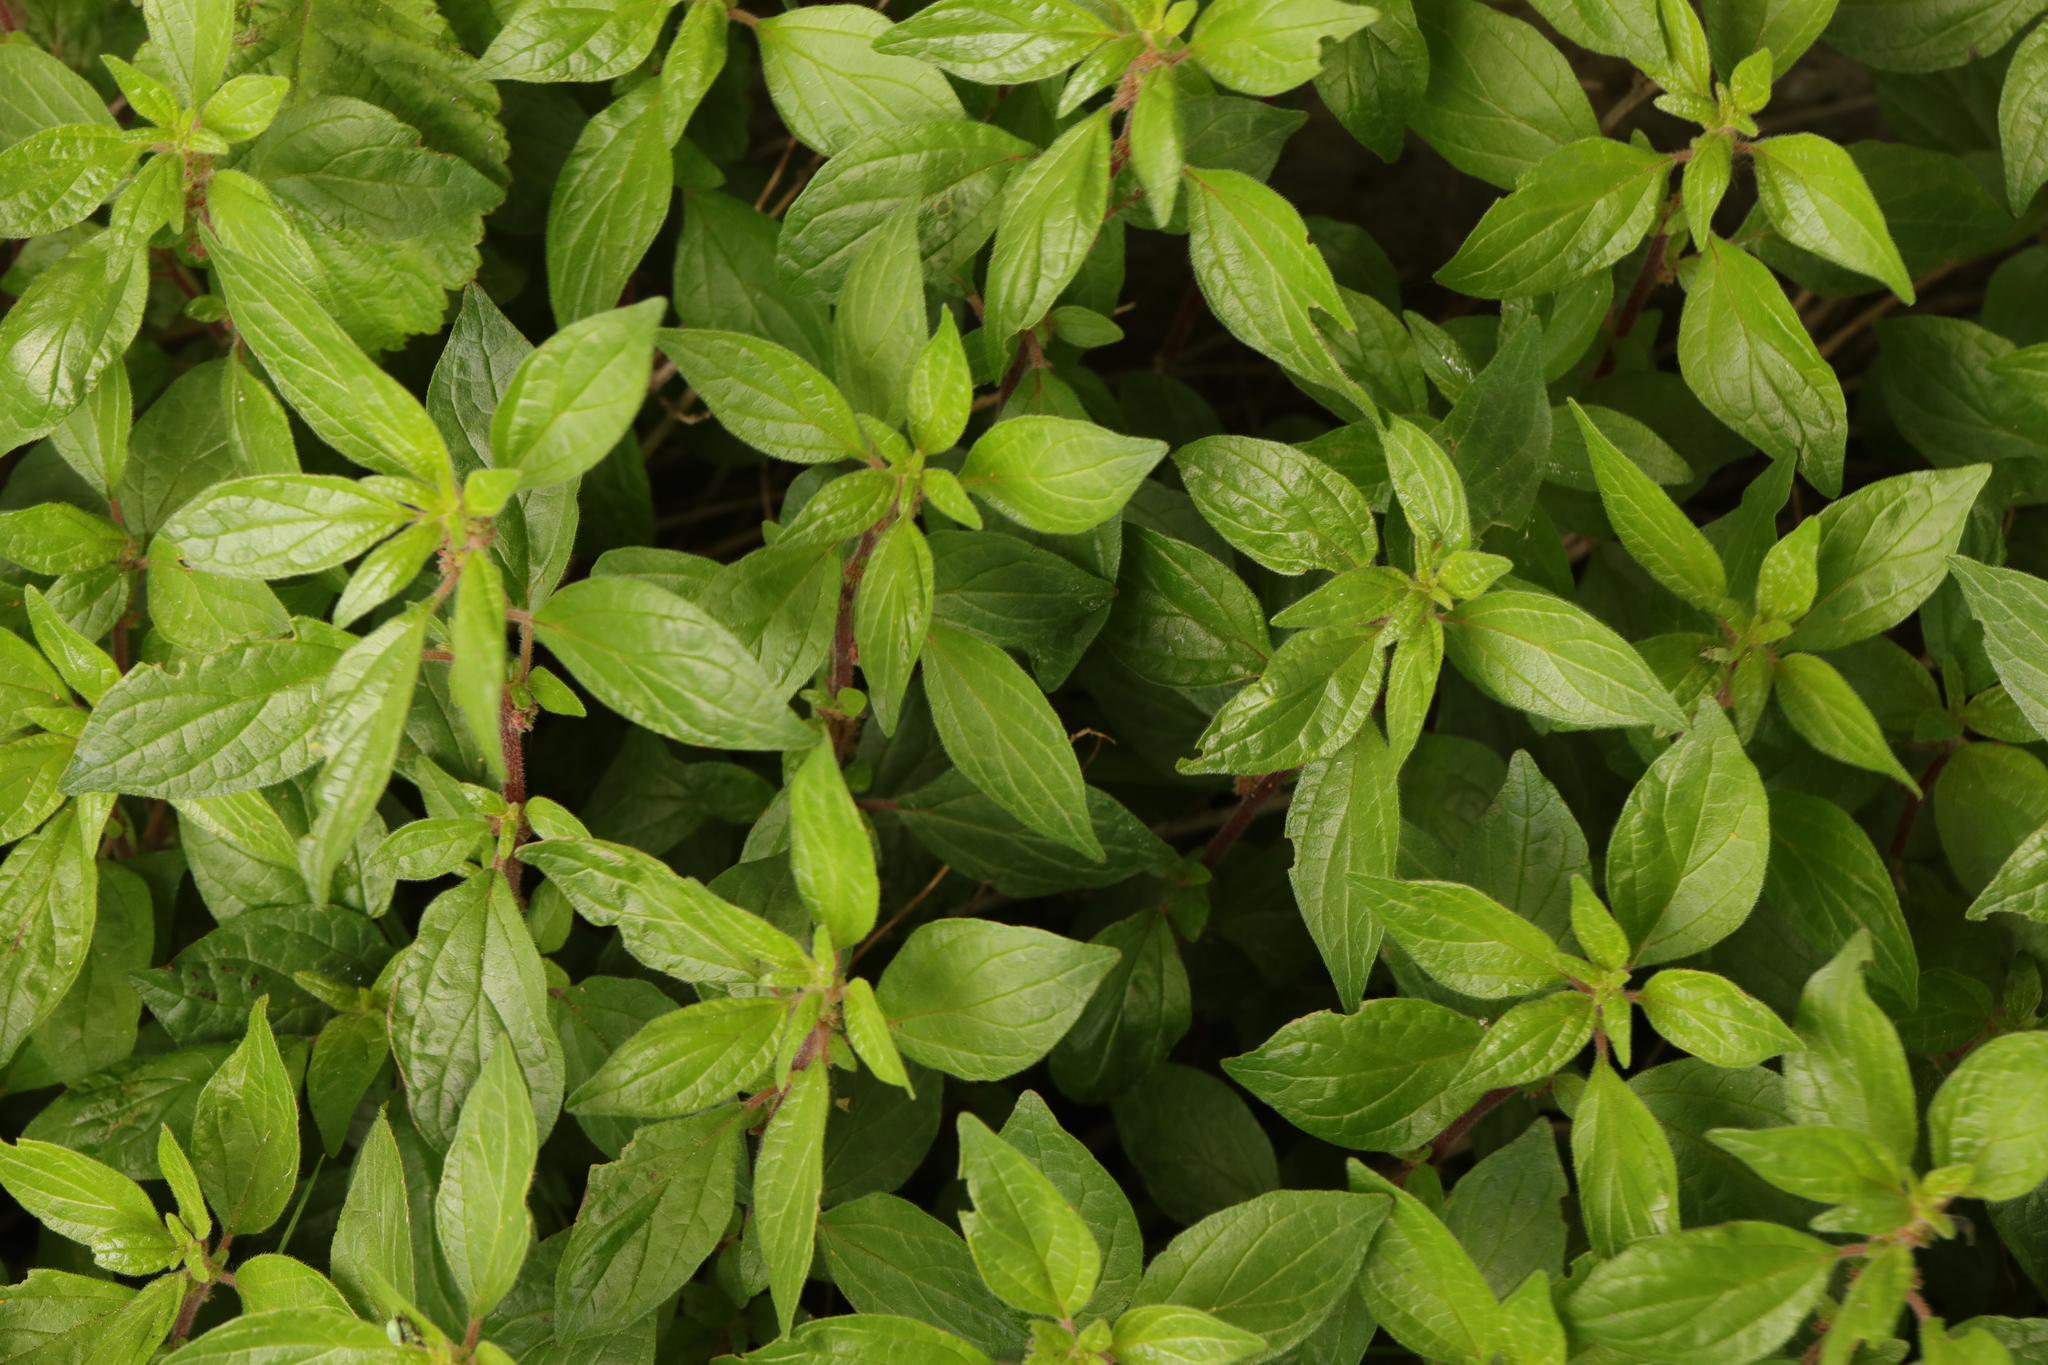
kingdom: Plantae
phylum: Tracheophyta
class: Magnoliopsida
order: Rosales
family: Urticaceae
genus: Parietaria
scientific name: Parietaria judaica
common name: Pellitory-of-the-wall
